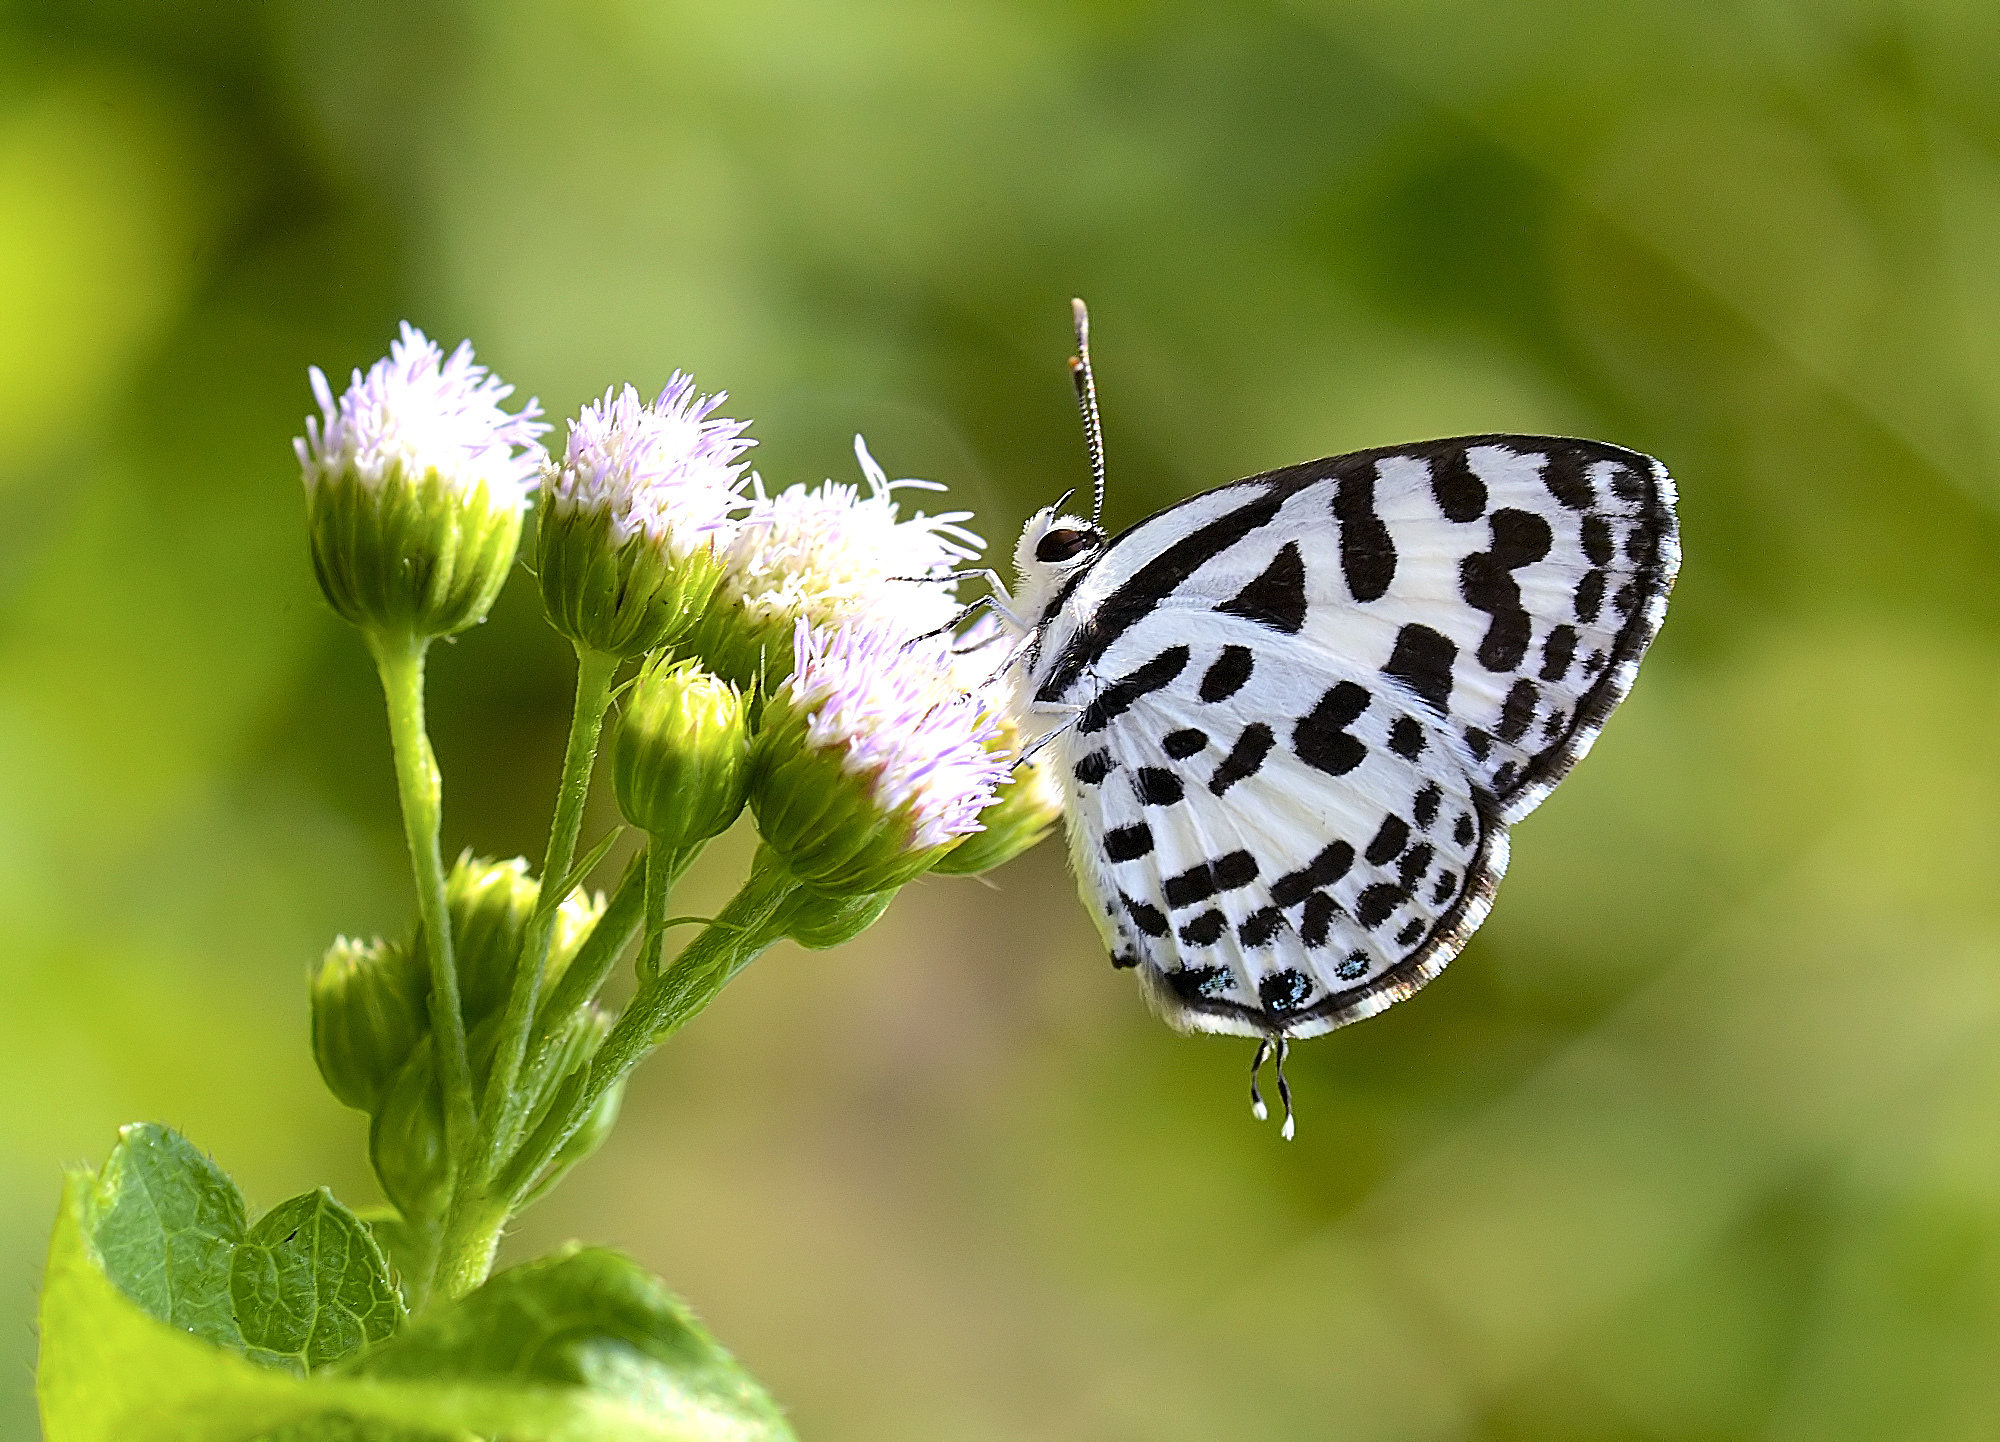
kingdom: Animalia
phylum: Arthropoda
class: Insecta
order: Lepidoptera
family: Lycaenidae
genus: Castalius
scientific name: Castalius rosimon
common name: Common pierrot
